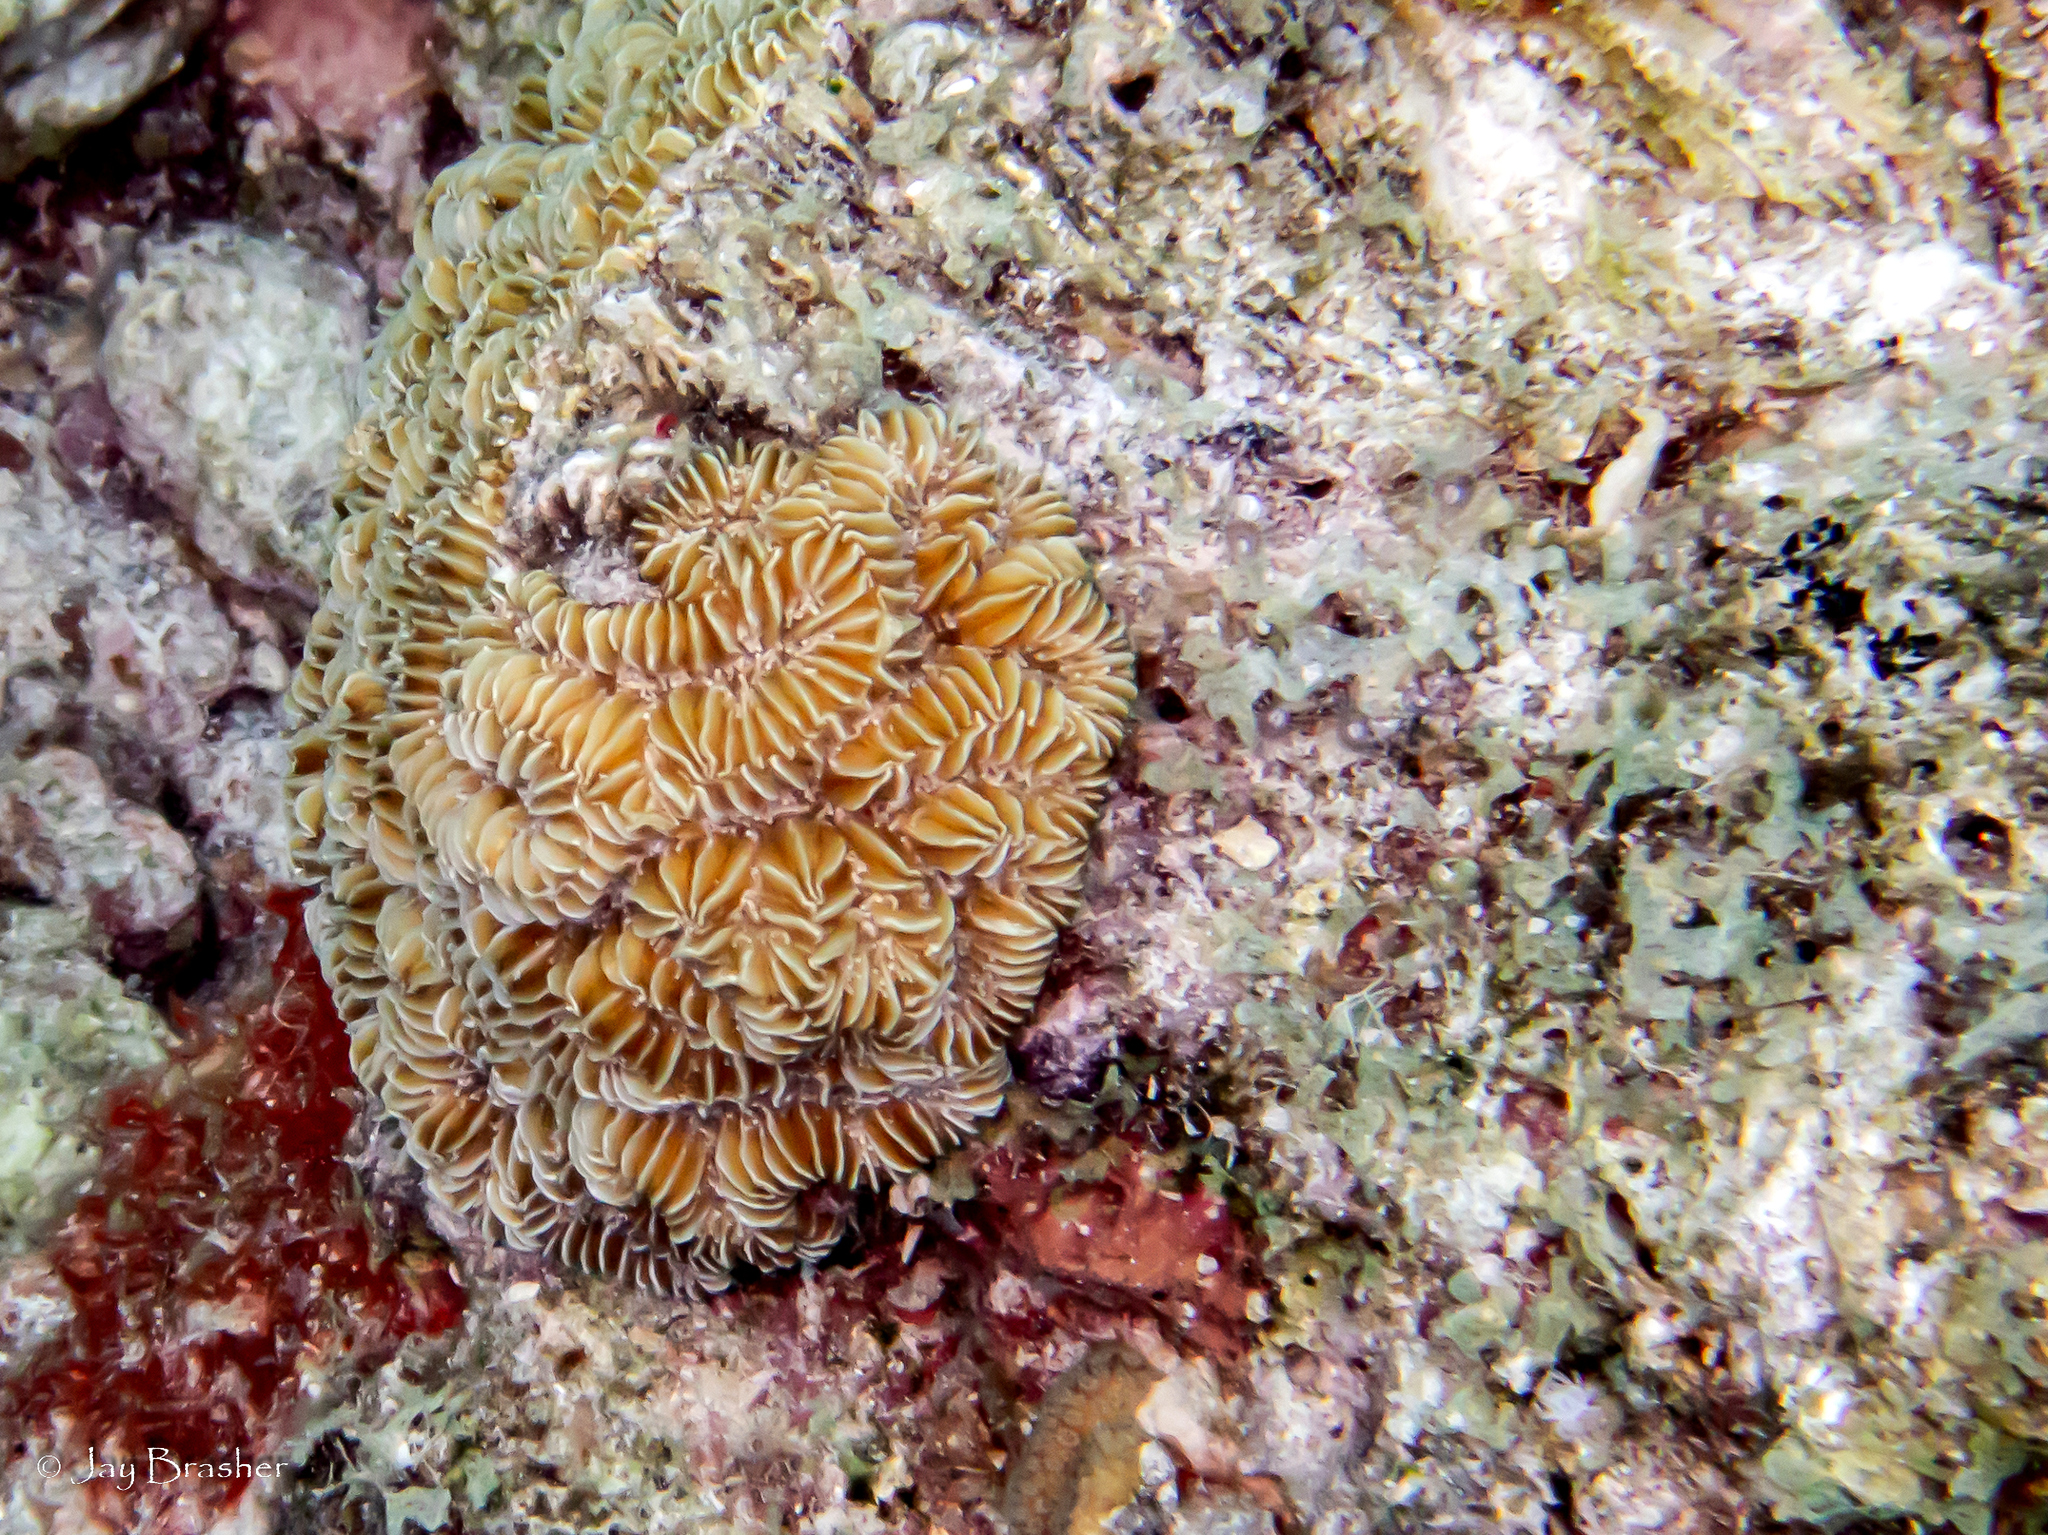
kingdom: Animalia
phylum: Cnidaria
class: Anthozoa
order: Scleractinia
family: Meandrinidae
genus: Meandrina
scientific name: Meandrina meandrites
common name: Maze coral
